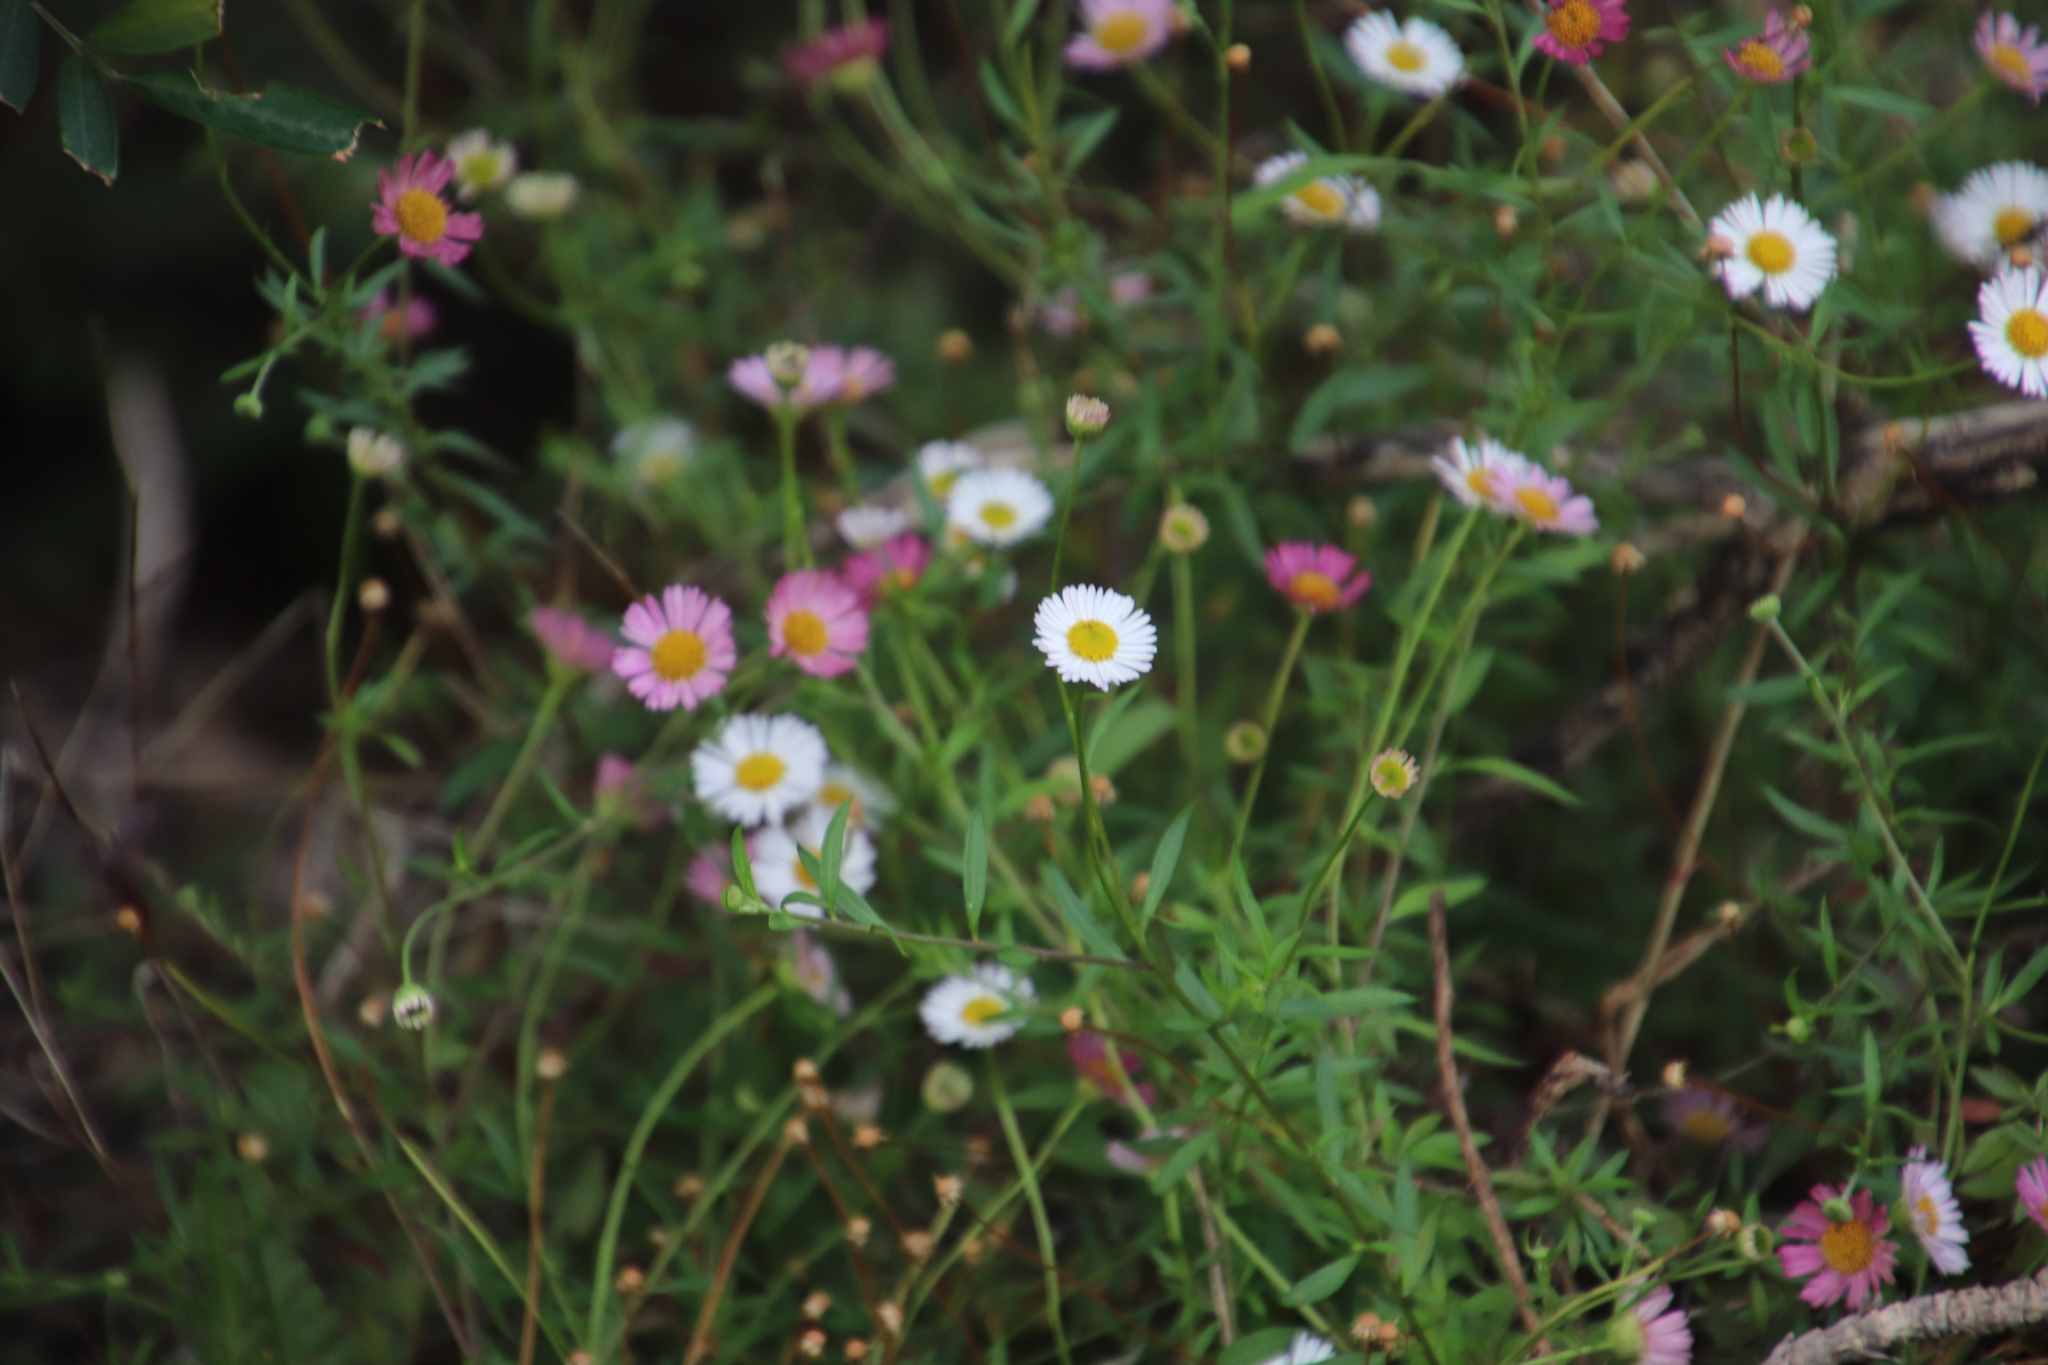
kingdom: Plantae
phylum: Tracheophyta
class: Magnoliopsida
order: Asterales
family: Asteraceae
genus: Erigeron
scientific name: Erigeron karvinskianus
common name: Mexican fleabane
